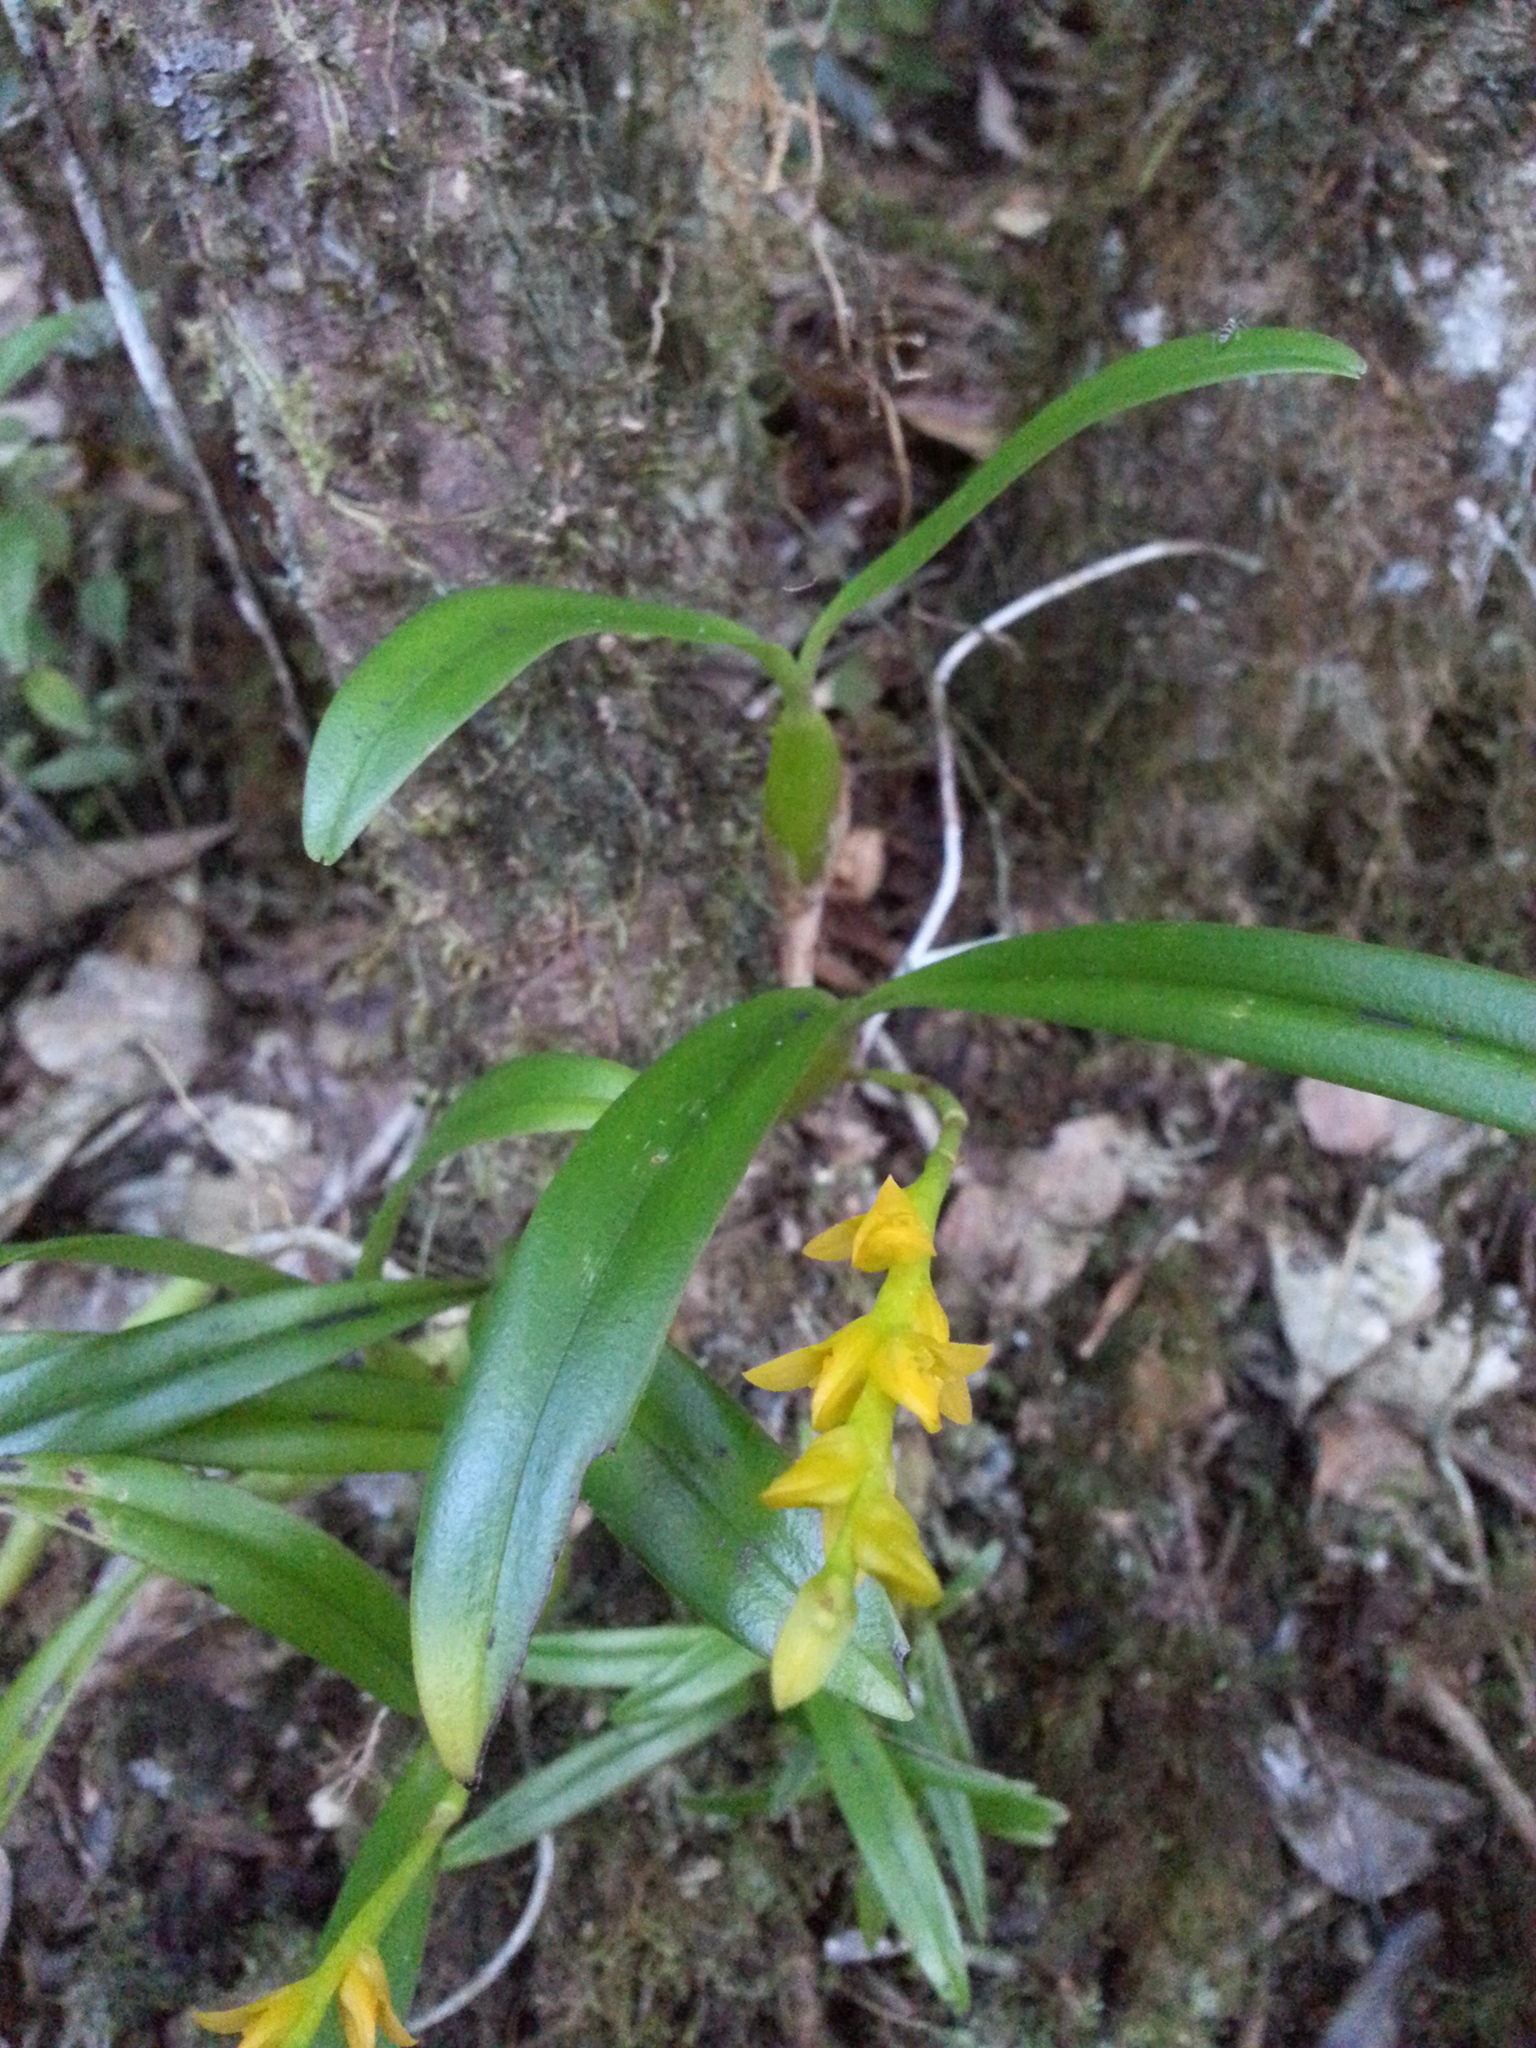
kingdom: Plantae
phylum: Tracheophyta
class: Liliopsida
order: Asparagales
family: Orchidaceae
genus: Bulbophyllum
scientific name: Bulbophyllum auriflorum
